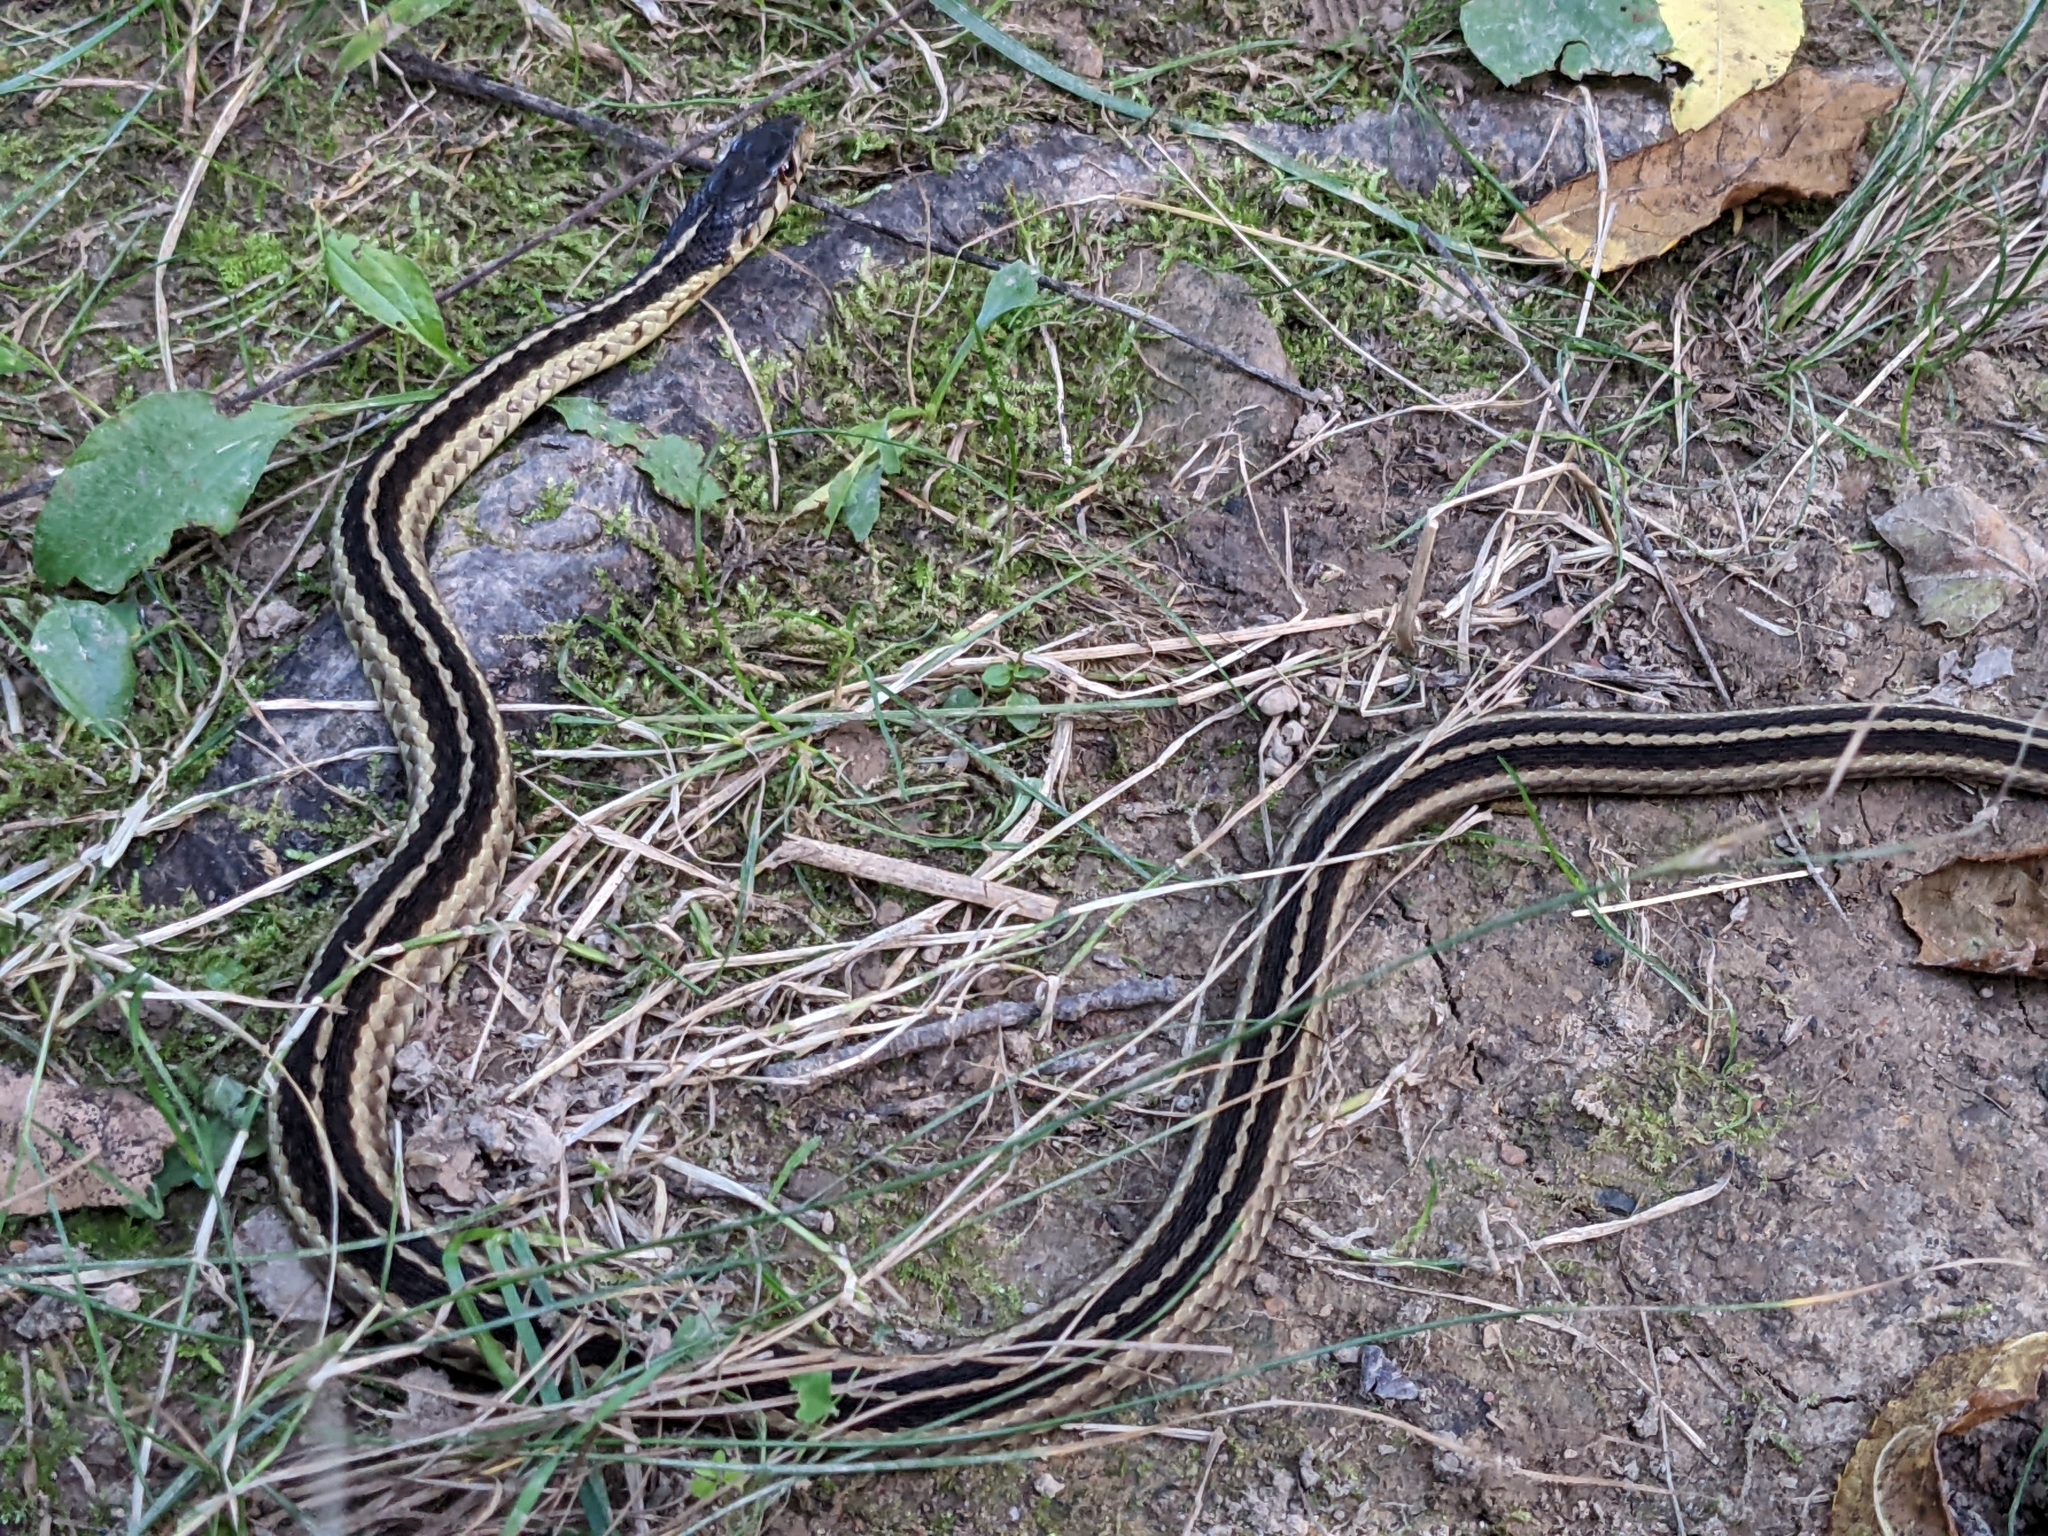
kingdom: Animalia
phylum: Chordata
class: Squamata
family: Colubridae
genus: Thamnophis
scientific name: Thamnophis sirtalis
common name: Common garter snake
